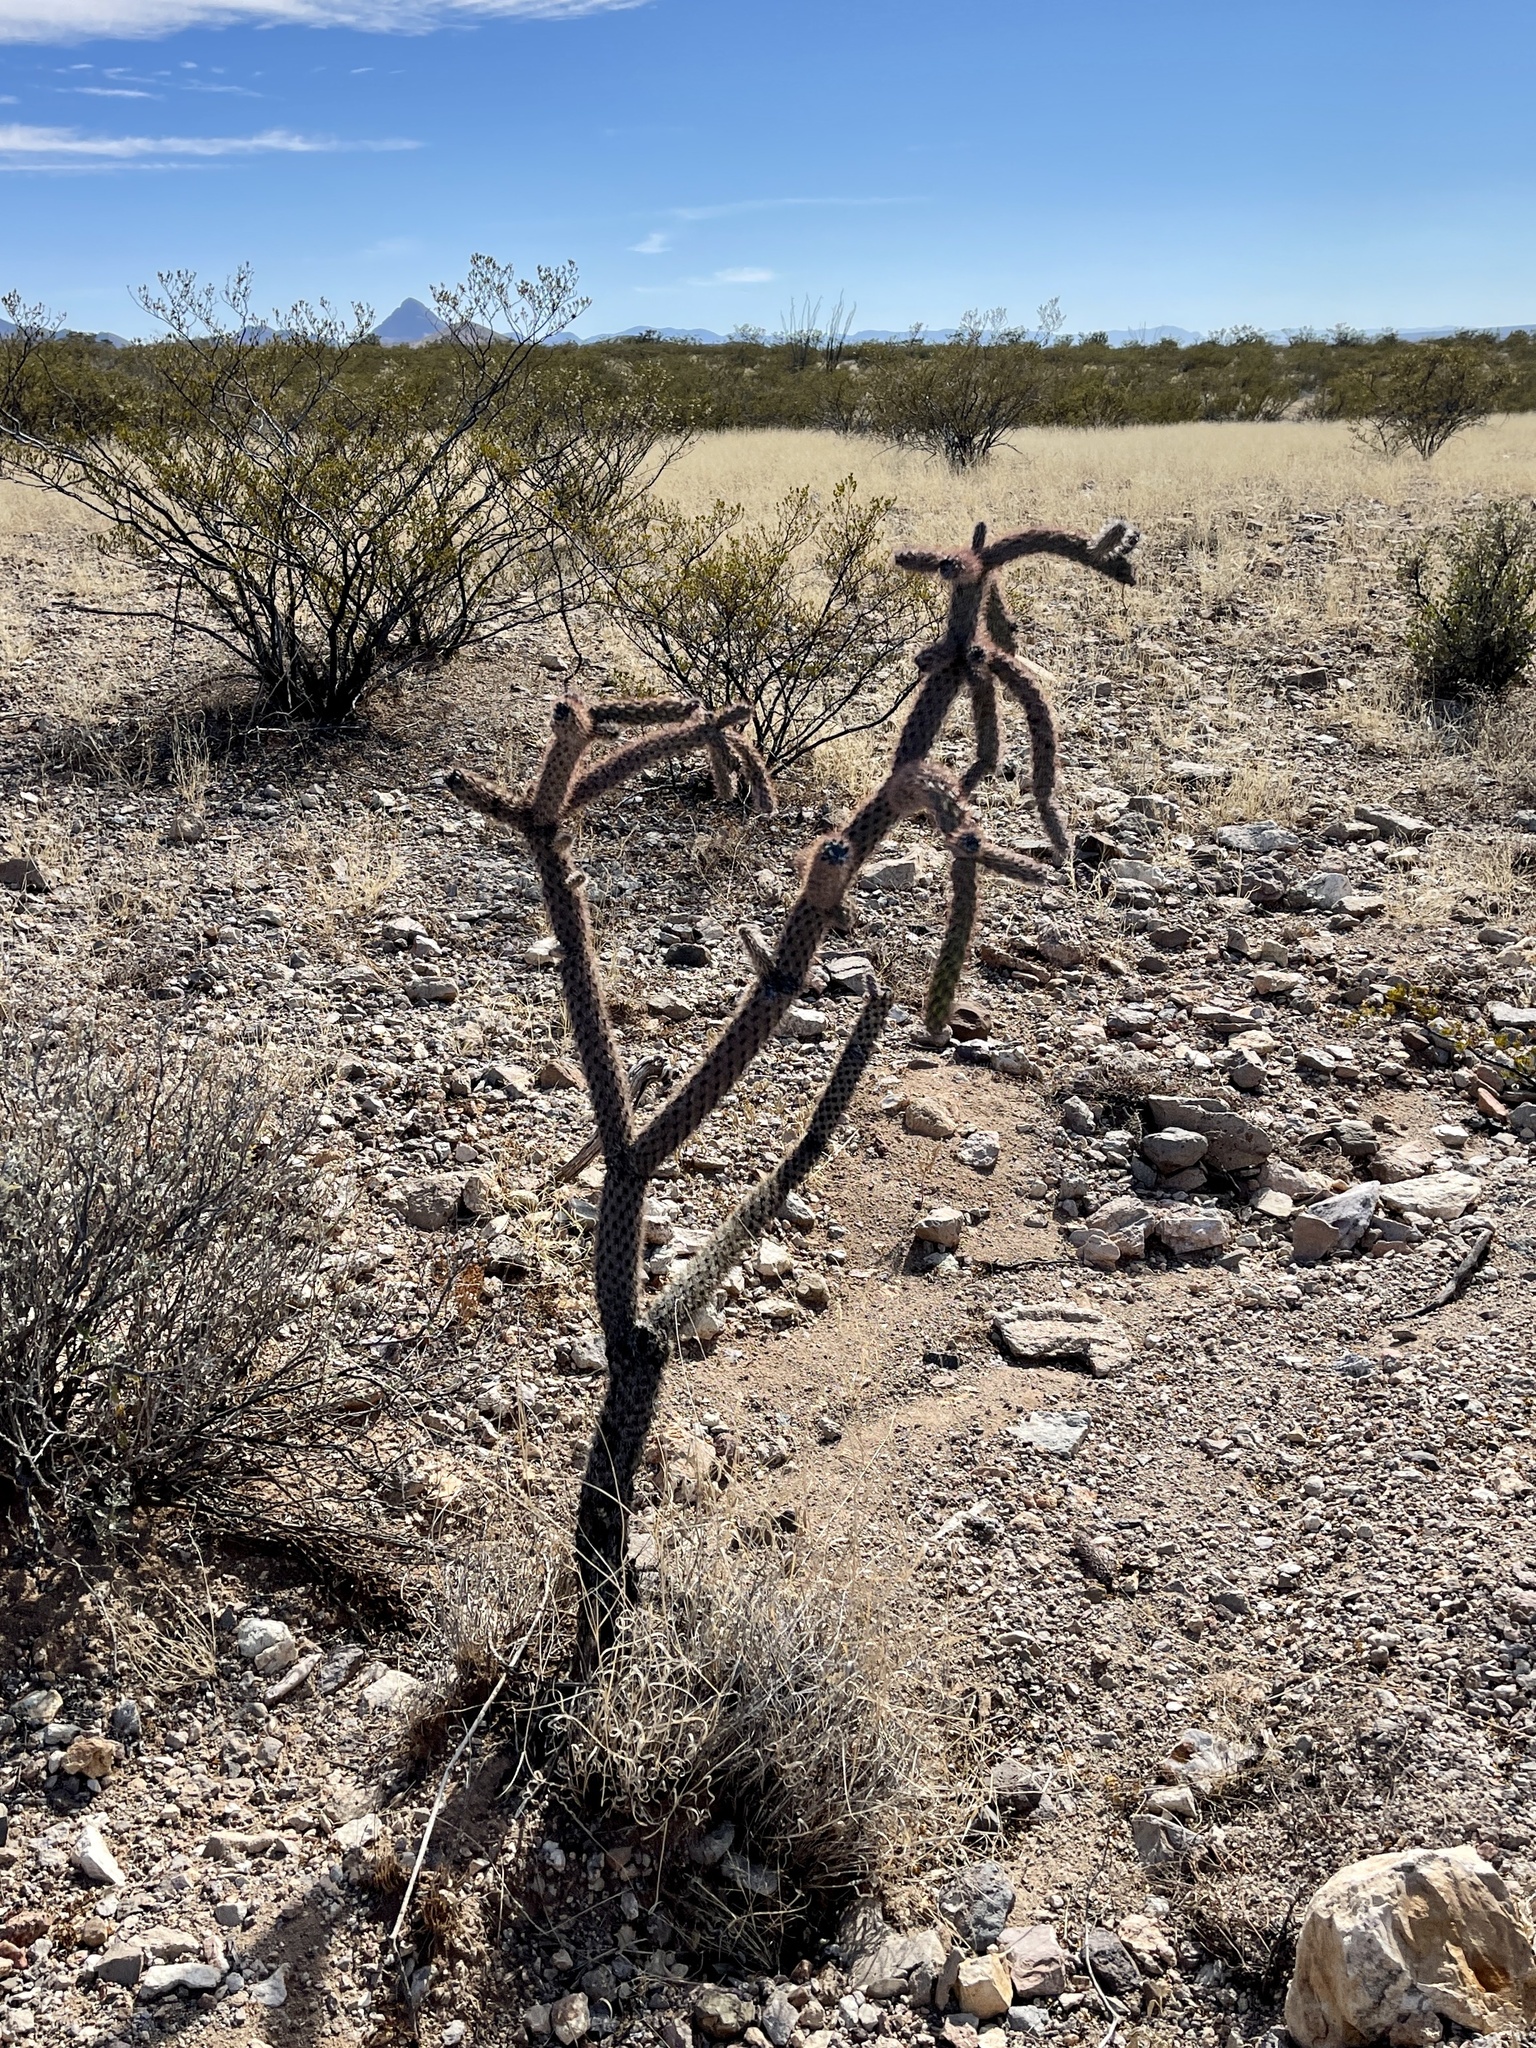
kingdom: Plantae
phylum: Tracheophyta
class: Magnoliopsida
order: Caryophyllales
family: Cactaceae
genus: Cylindropuntia
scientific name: Cylindropuntia imbricata
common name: Candelabrum cactus
